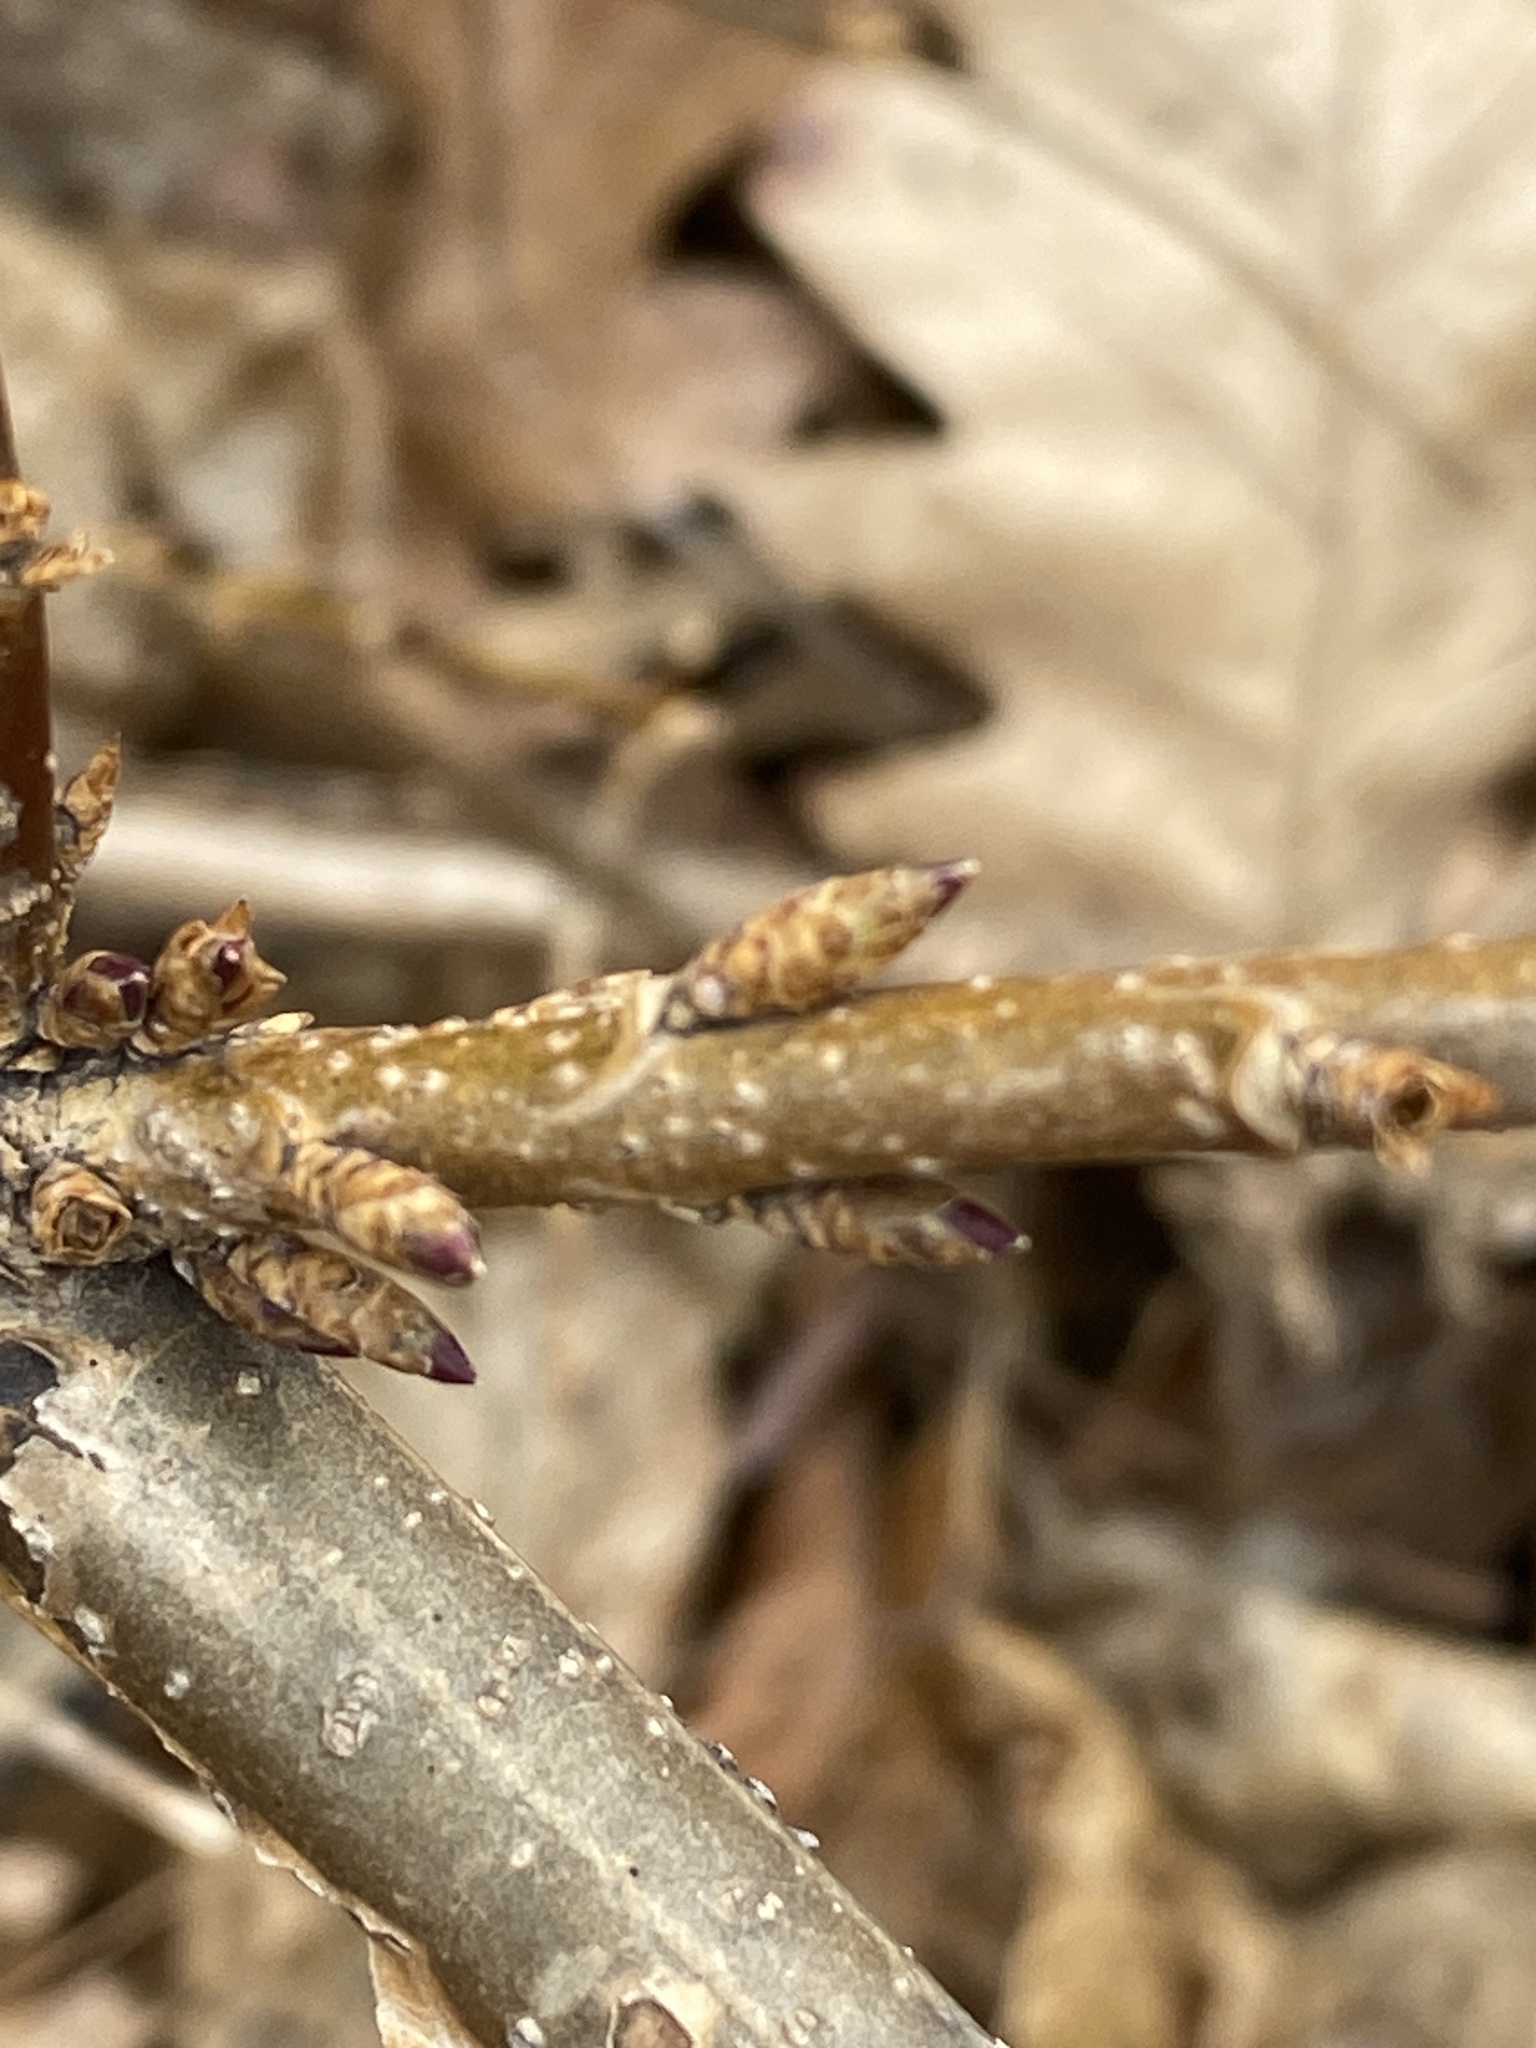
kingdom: Plantae
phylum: Tracheophyta
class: Magnoliopsida
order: Lamiales
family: Oleaceae
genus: Forsythia
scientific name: Forsythia
